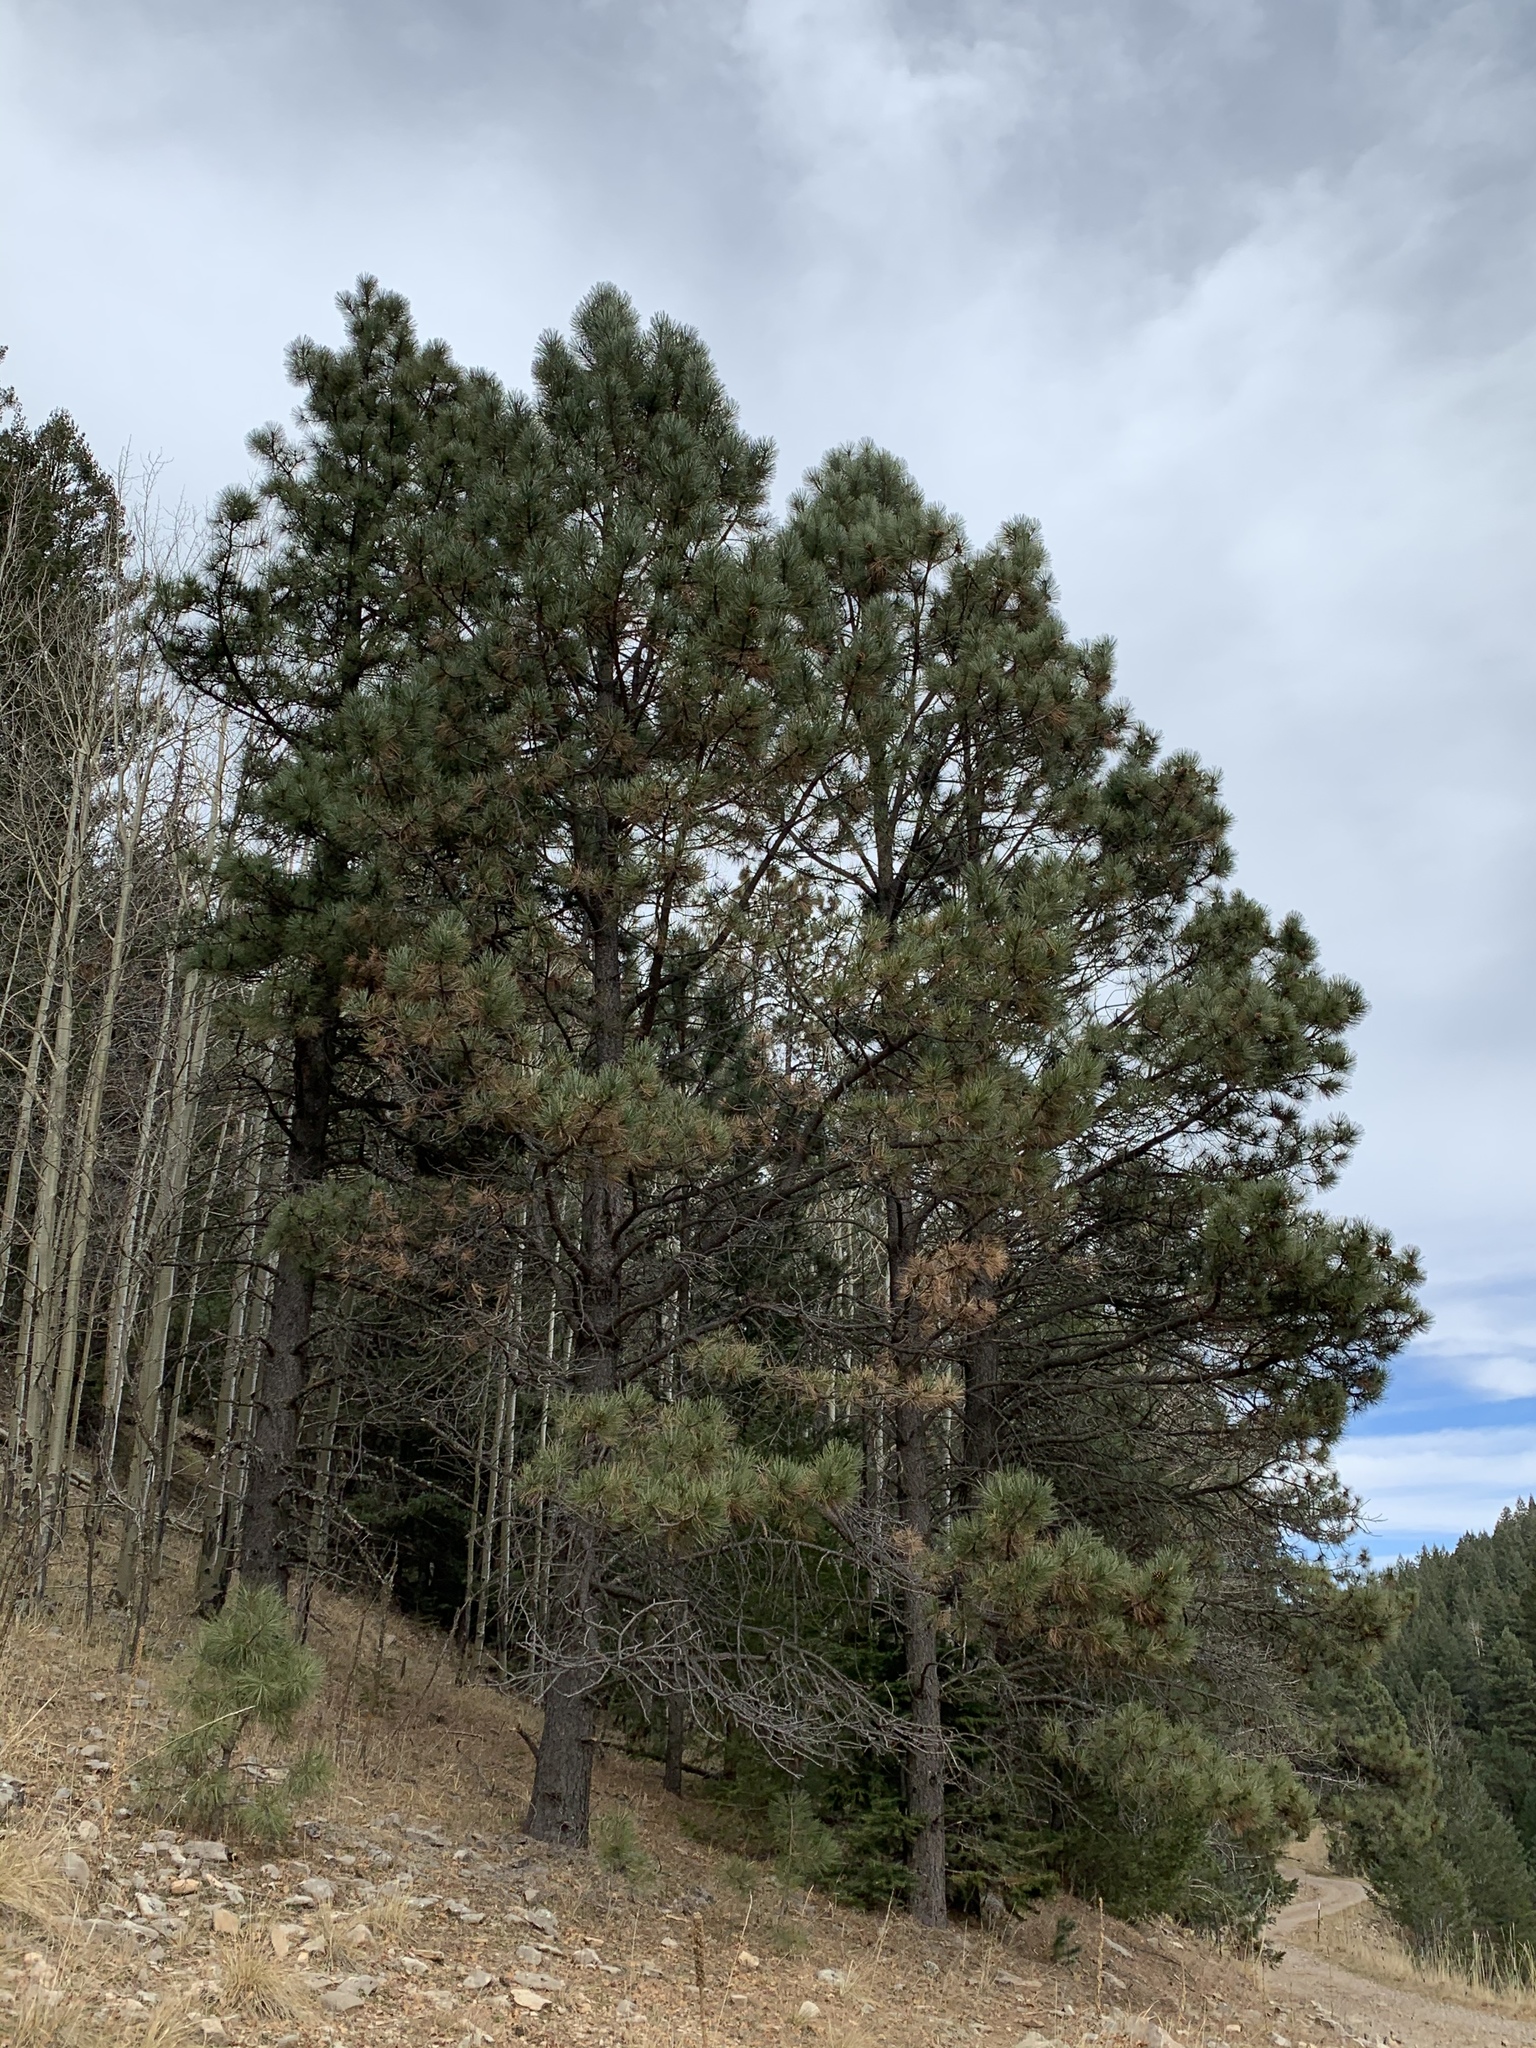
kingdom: Plantae
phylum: Tracheophyta
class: Pinopsida
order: Pinales
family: Pinaceae
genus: Pinus
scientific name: Pinus ponderosa
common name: Western yellow-pine
